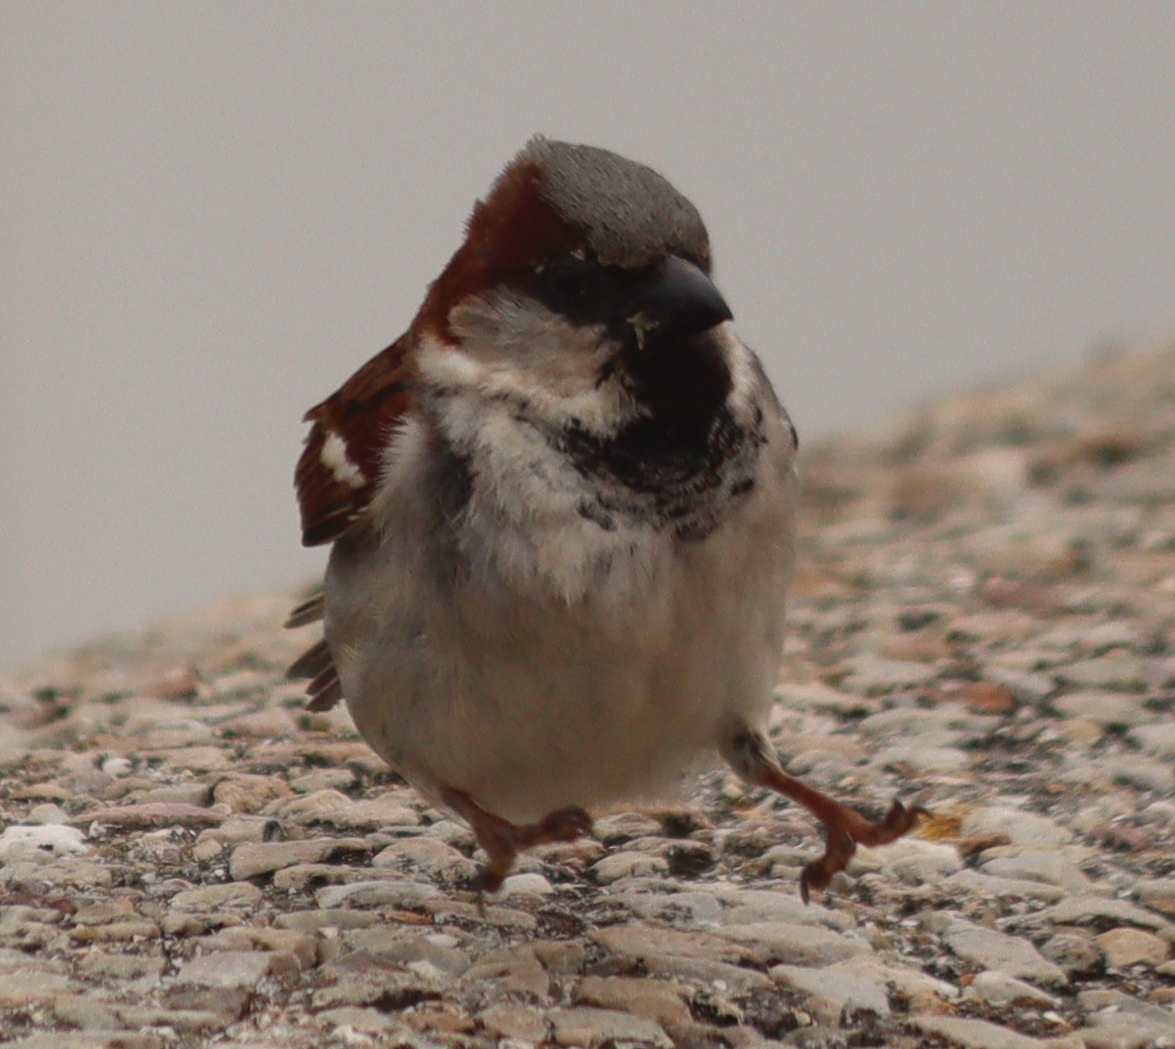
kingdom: Animalia
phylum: Chordata
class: Aves
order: Passeriformes
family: Passeridae
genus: Passer
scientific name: Passer domesticus
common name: House sparrow
